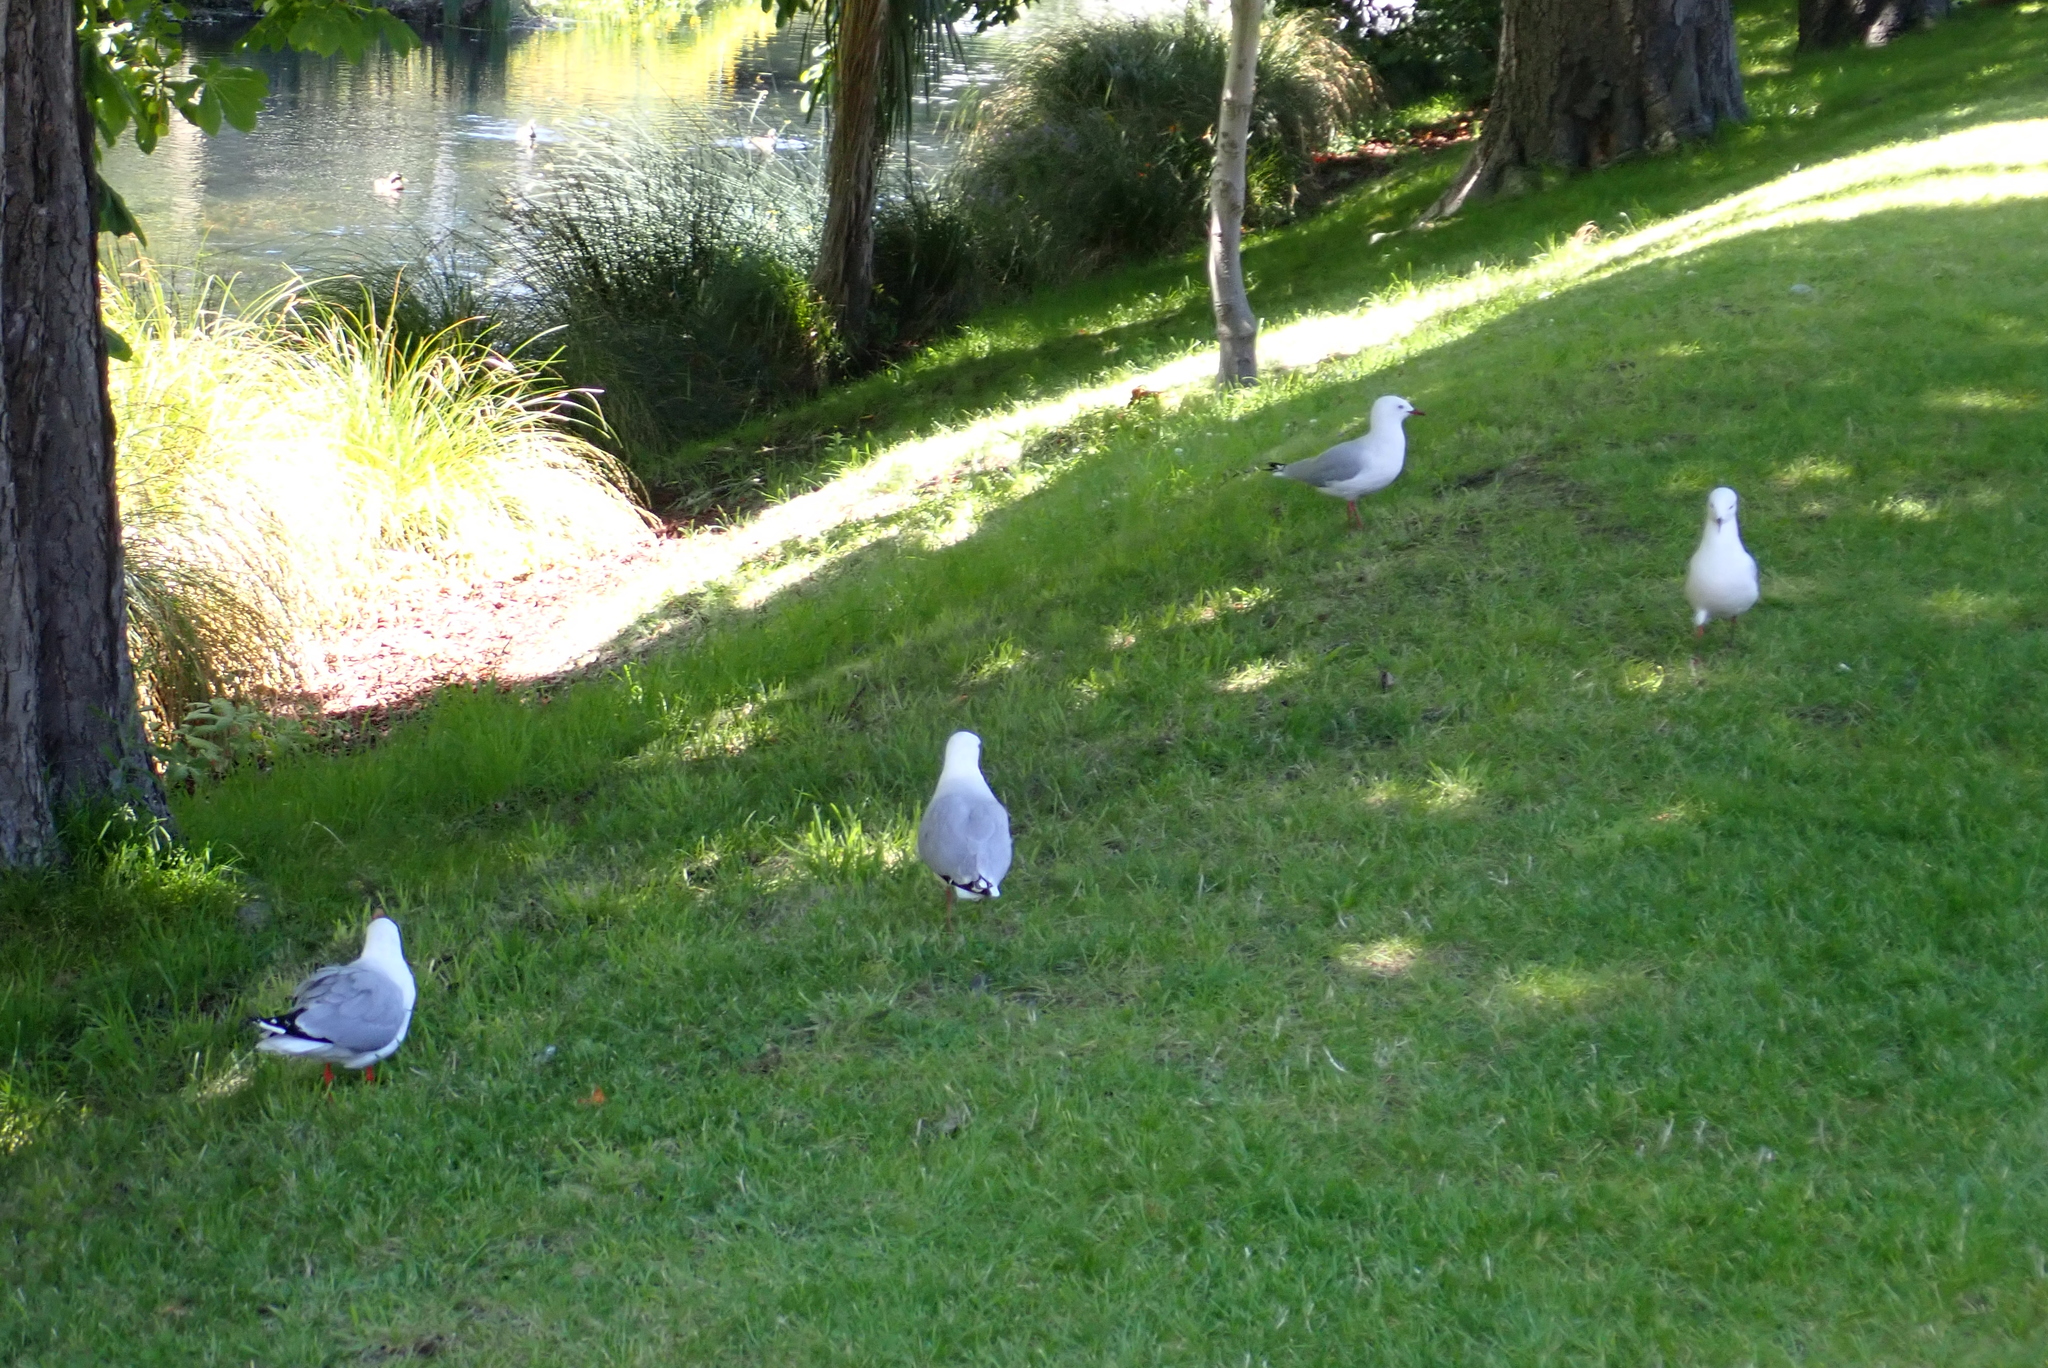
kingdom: Animalia
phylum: Chordata
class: Aves
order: Charadriiformes
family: Laridae
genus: Chroicocephalus
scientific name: Chroicocephalus novaehollandiae
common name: Silver gull
